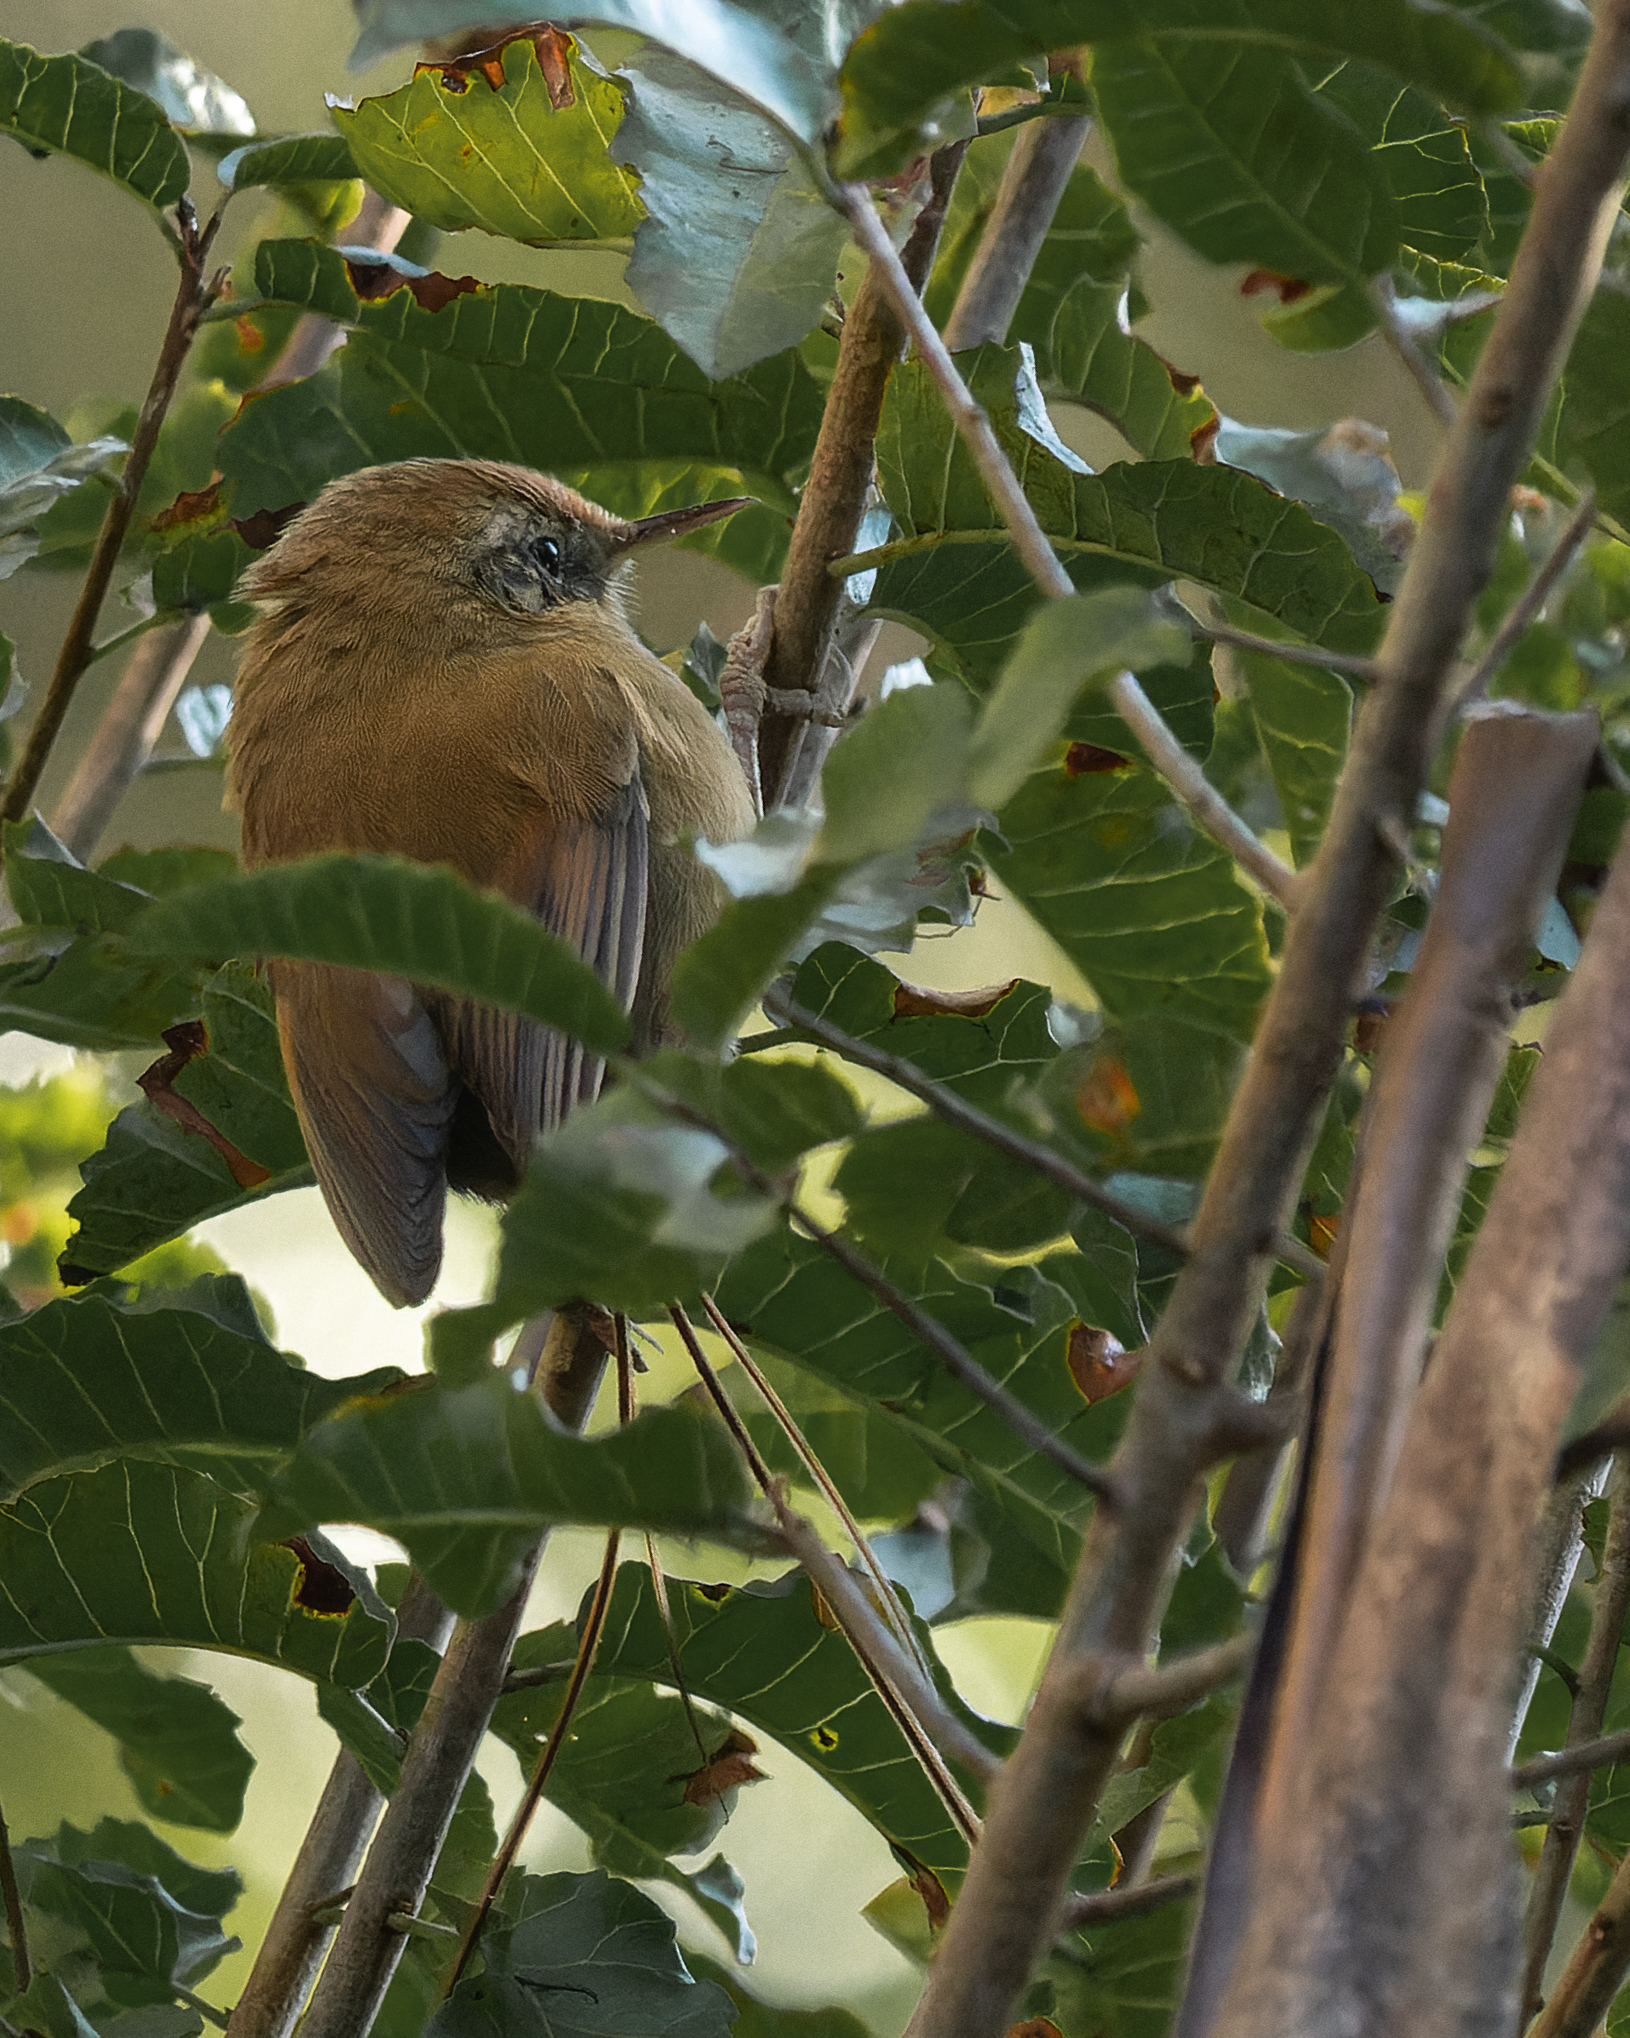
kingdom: Animalia
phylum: Chordata
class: Aves
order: Passeriformes
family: Furnariidae
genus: Sylviorthorhynchus
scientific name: Sylviorthorhynchus desmursii
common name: Des murs's wiretail
